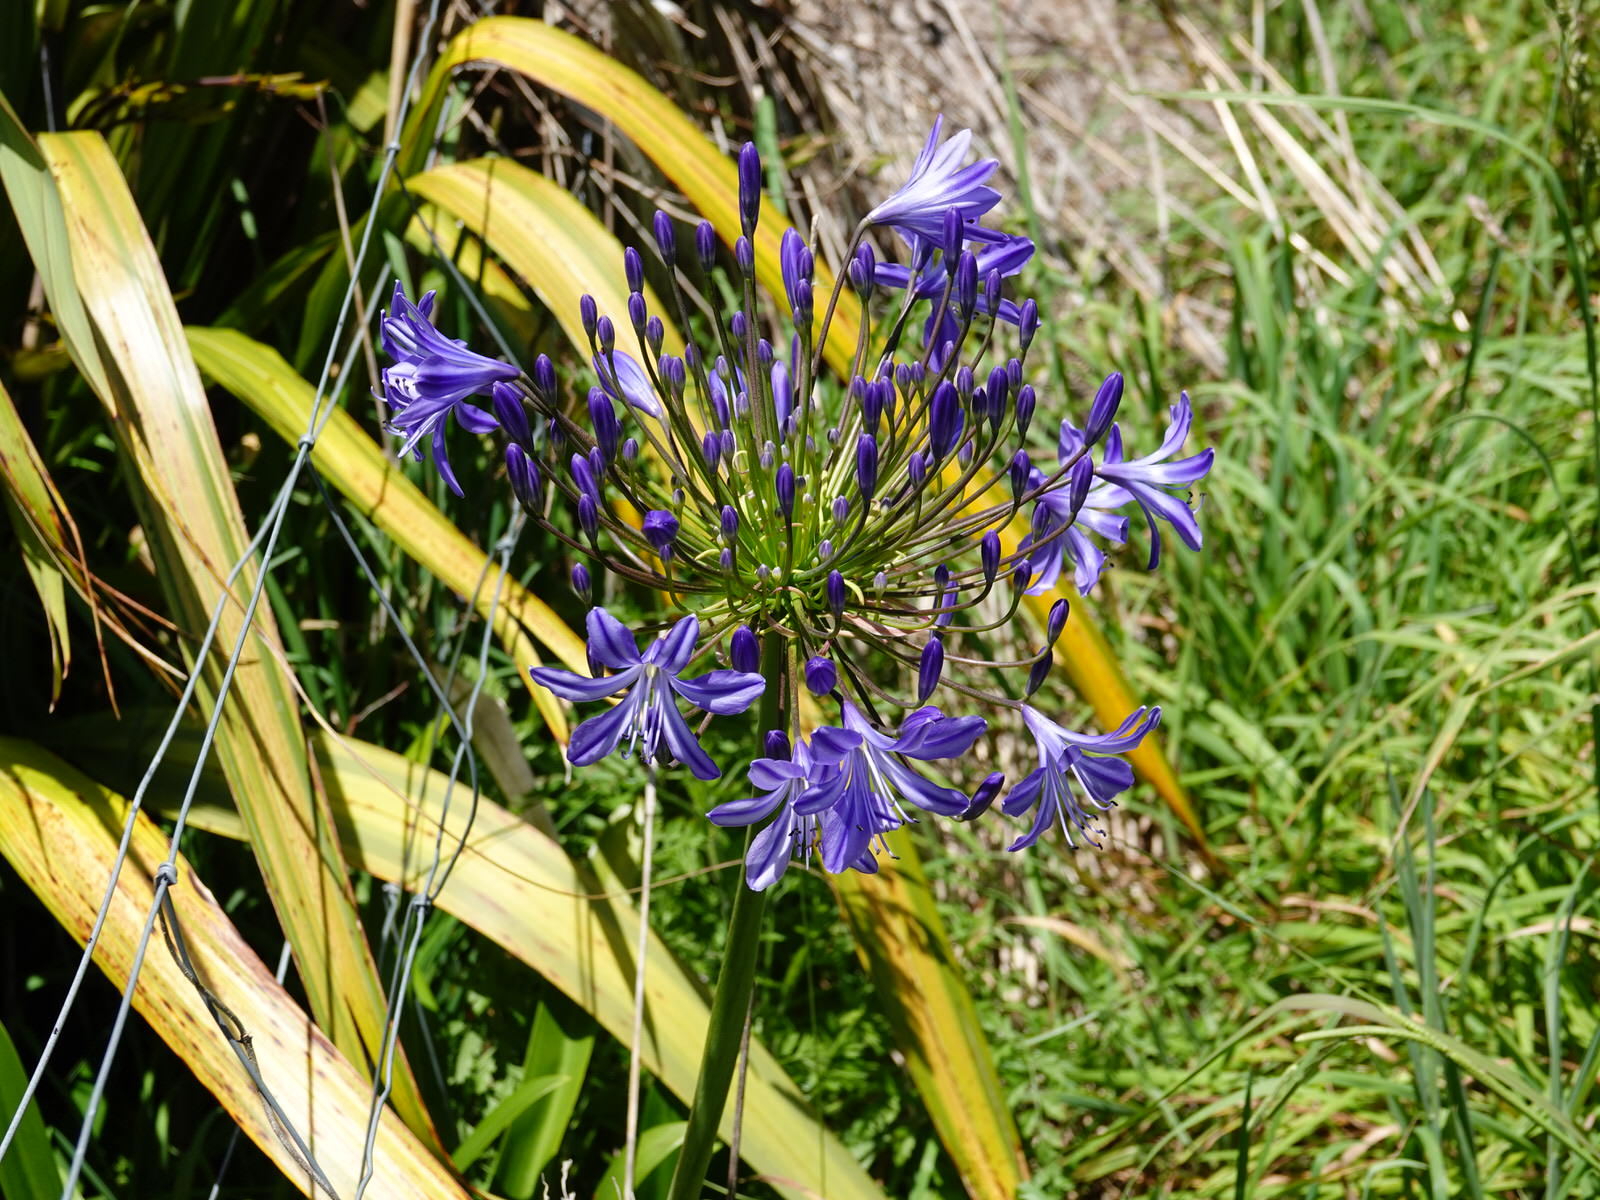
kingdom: Plantae
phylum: Tracheophyta
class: Liliopsida
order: Asparagales
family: Amaryllidaceae
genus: Agapanthus
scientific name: Agapanthus praecox
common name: African-lily
